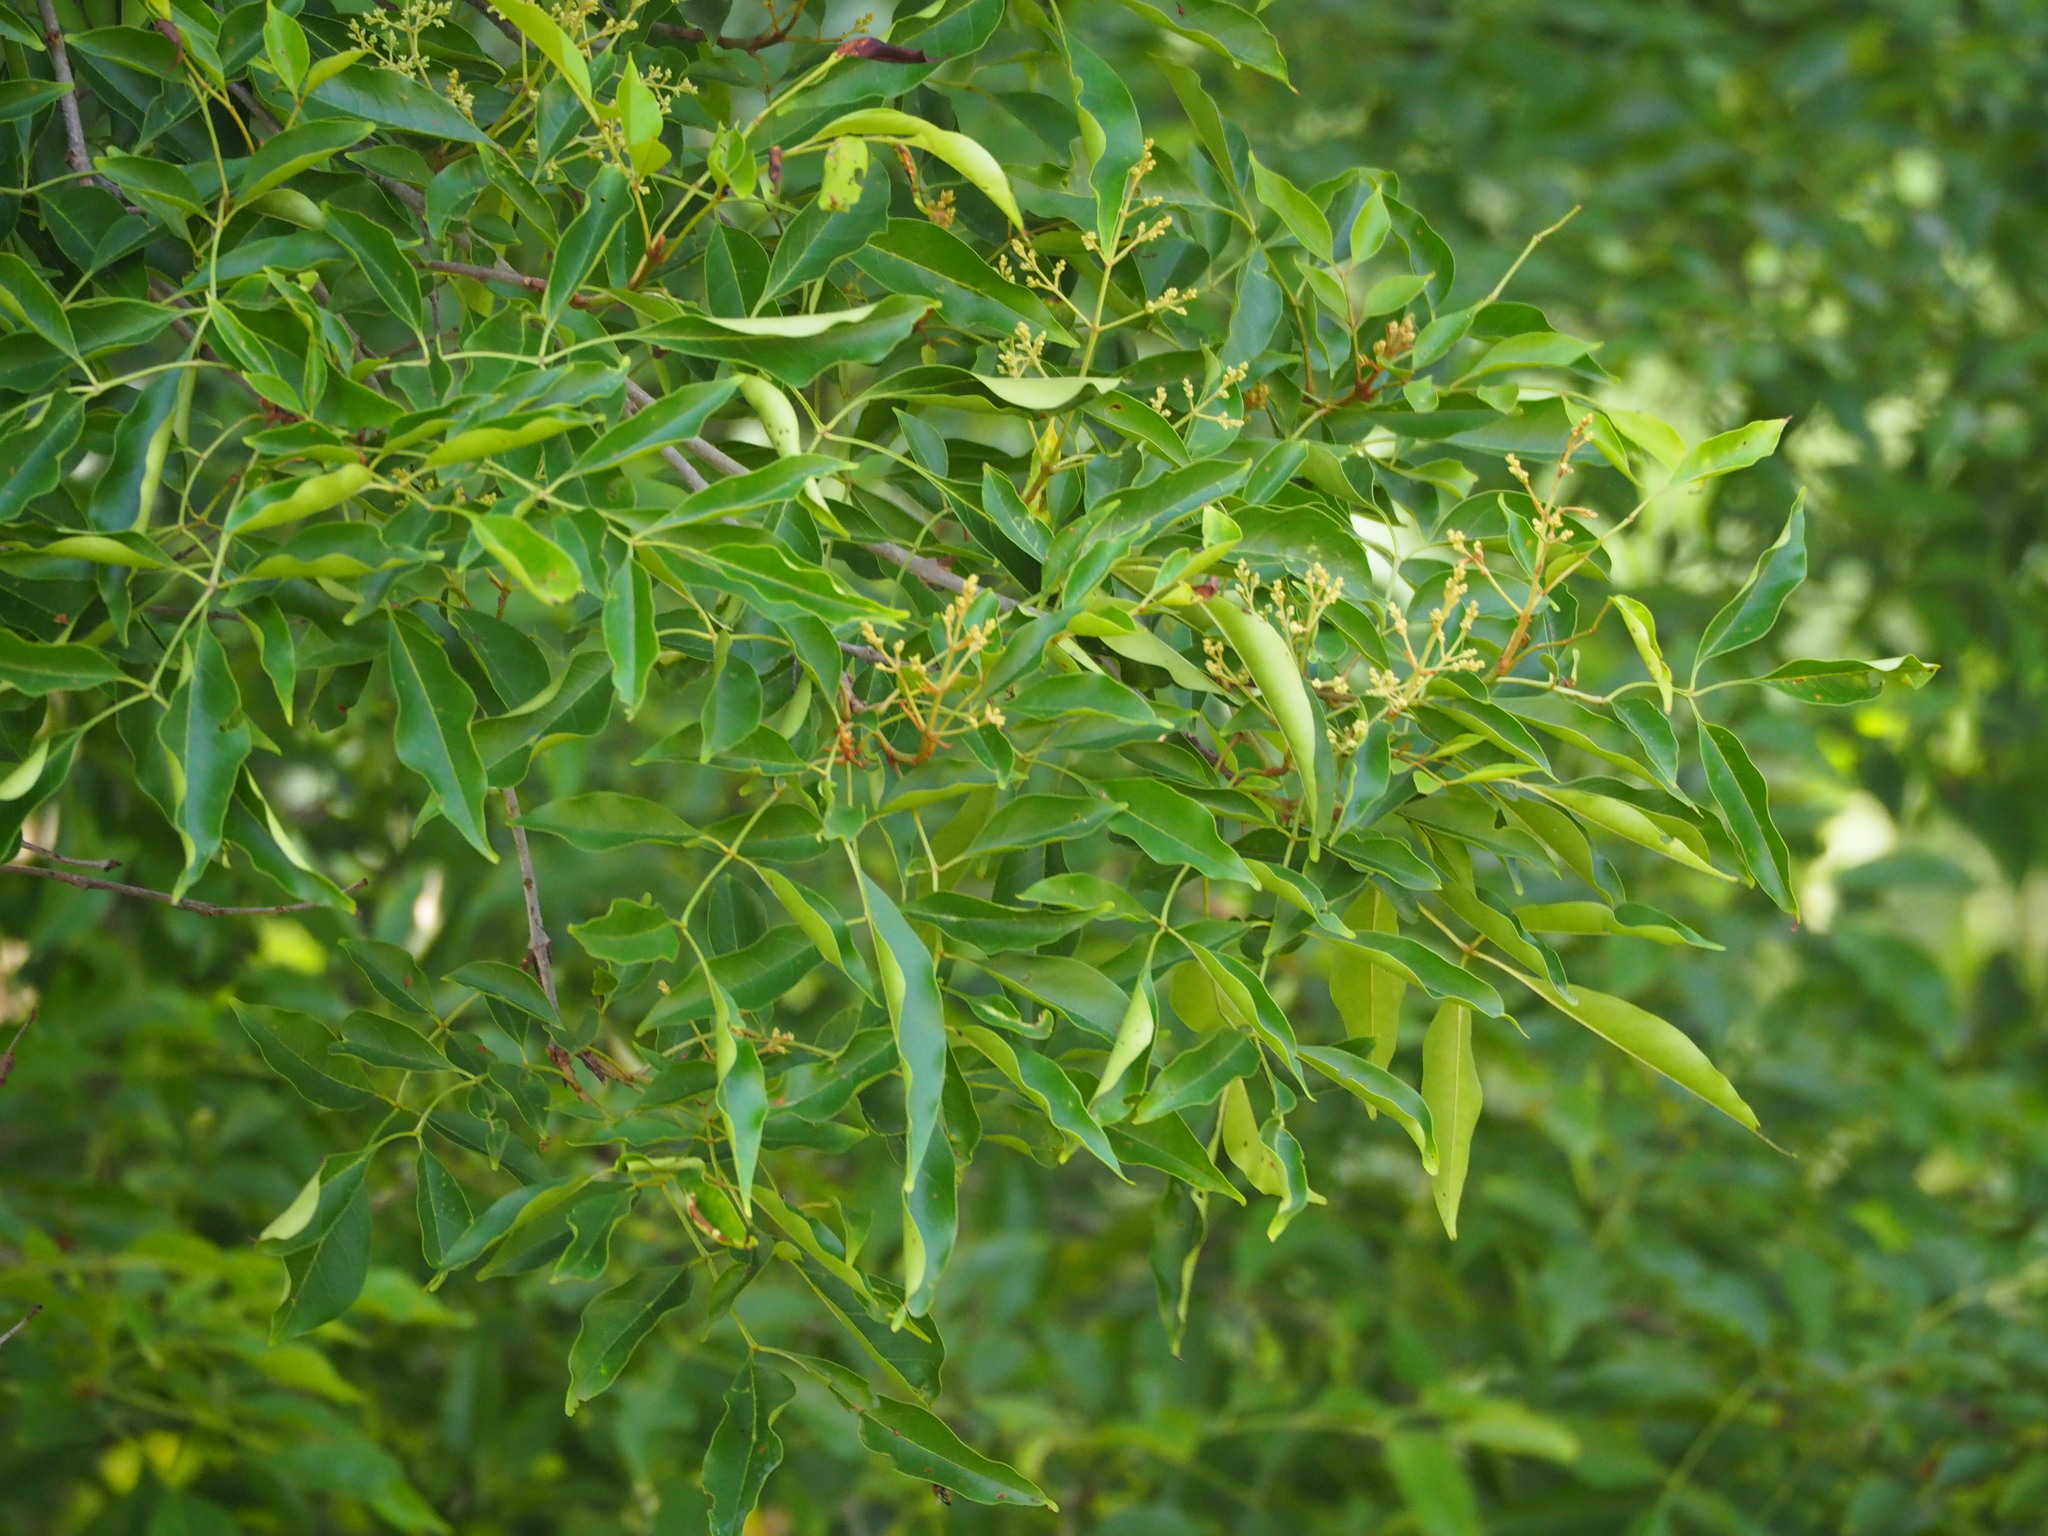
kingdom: Plantae
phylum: Tracheophyta
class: Magnoliopsida
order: Lamiales
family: Oleaceae
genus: Fraxinus
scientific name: Fraxinus griffithii
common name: Himalayan ash
